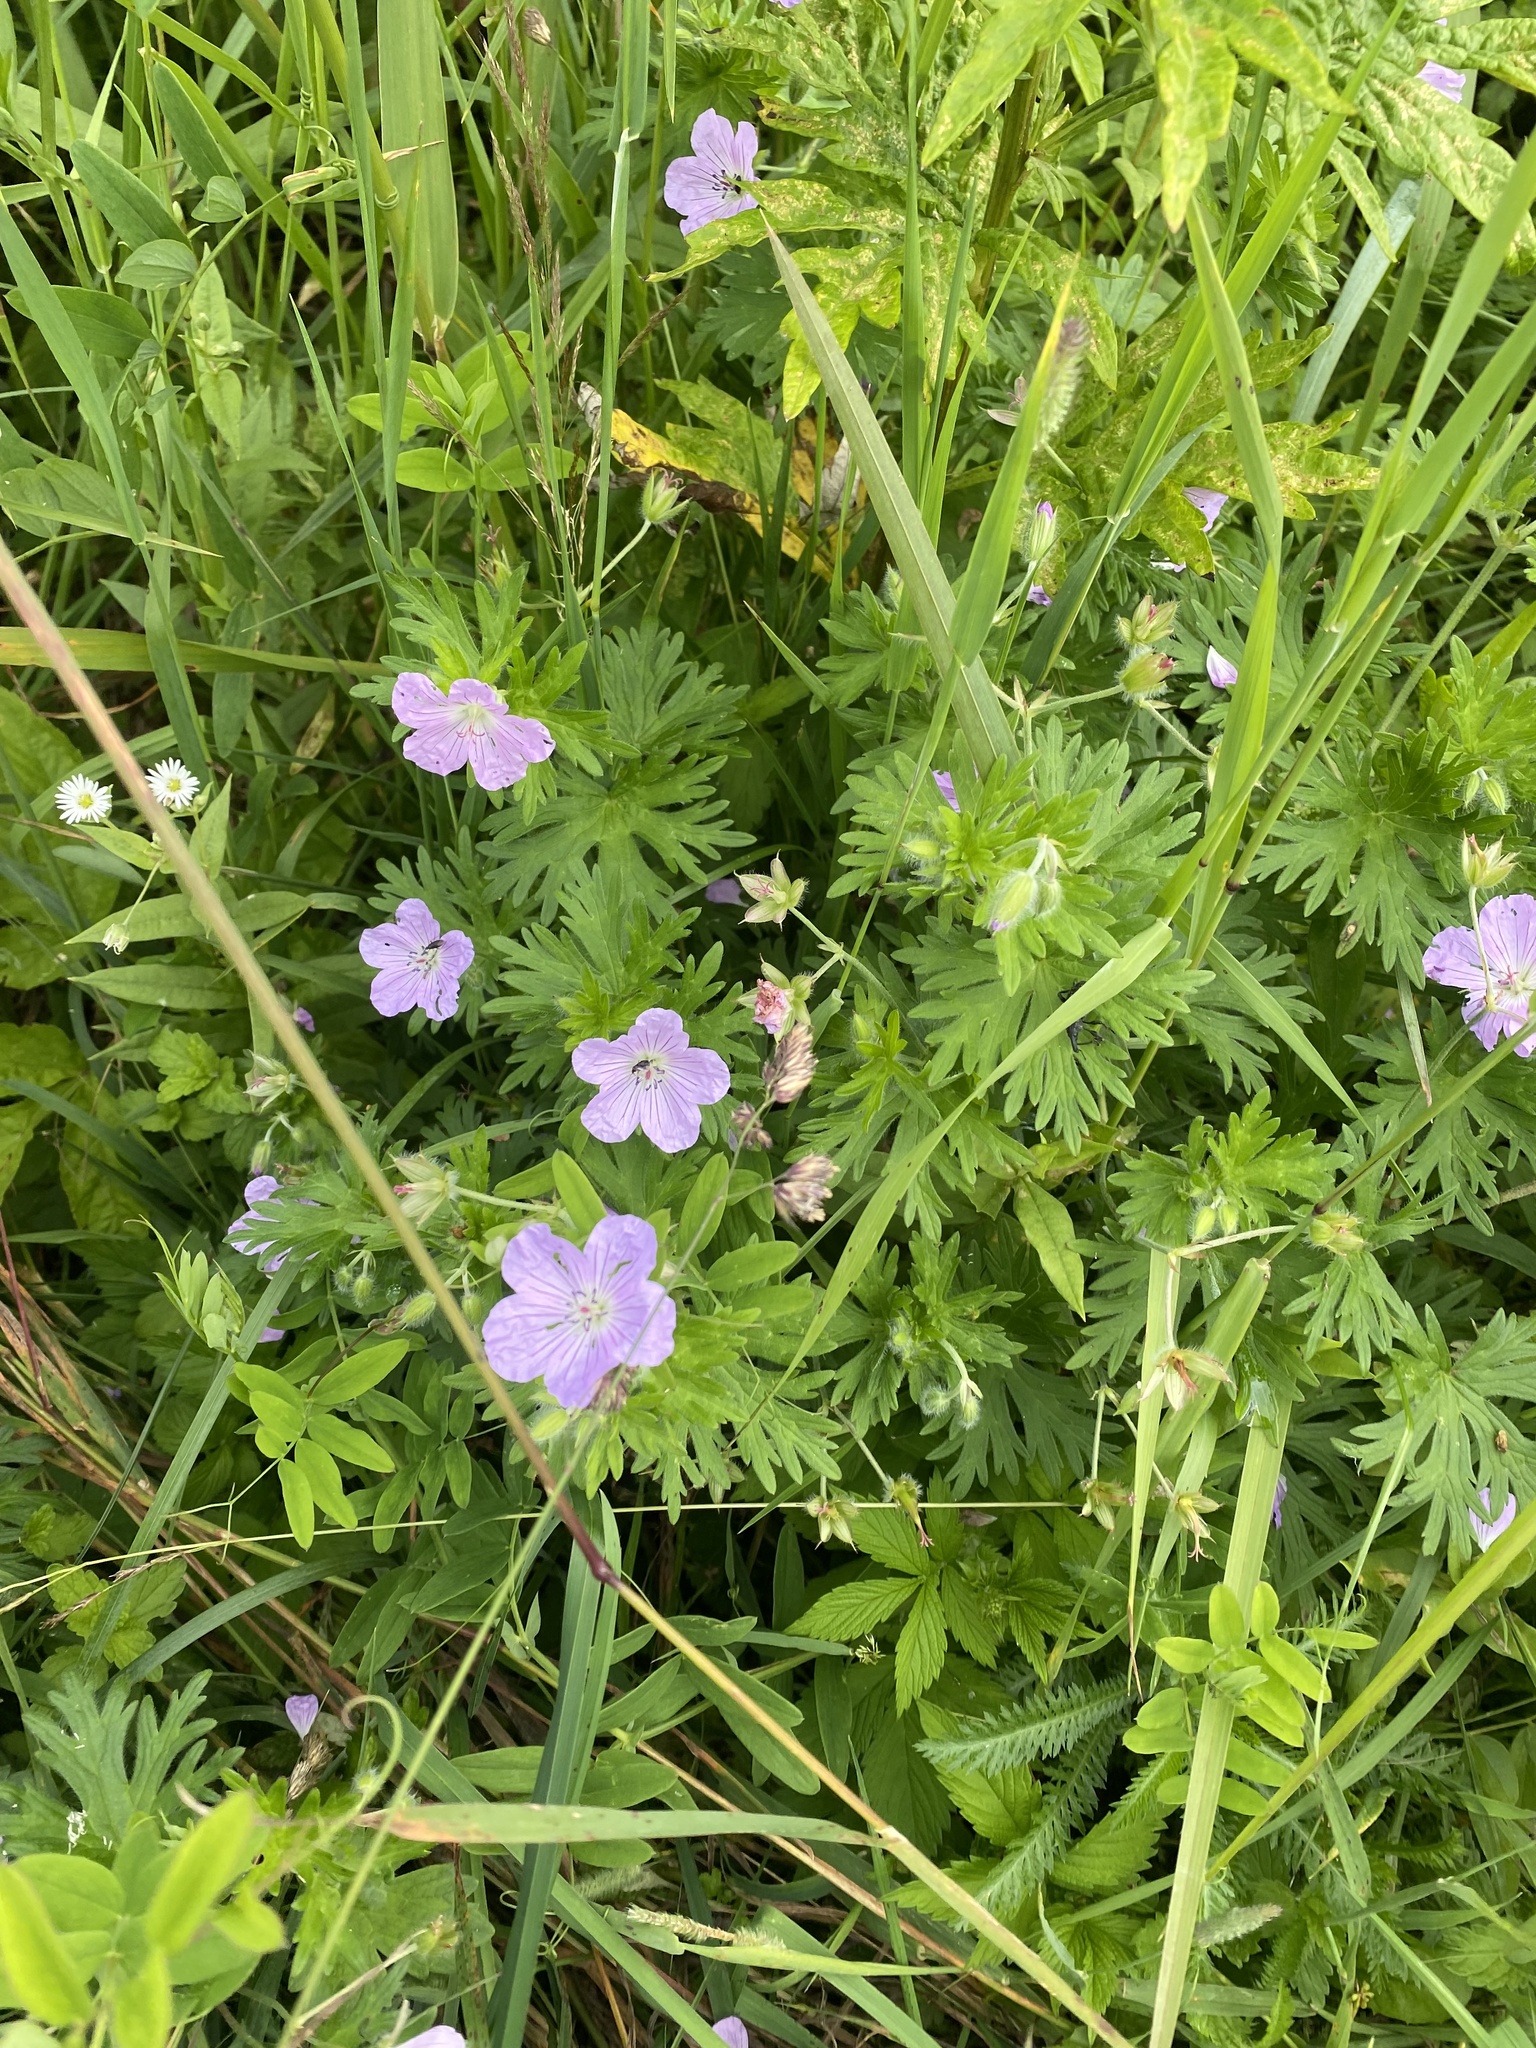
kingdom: Plantae
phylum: Tracheophyta
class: Magnoliopsida
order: Geraniales
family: Geraniaceae
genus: Geranium
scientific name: Geranium erianthum
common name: Northern crane's-bill
